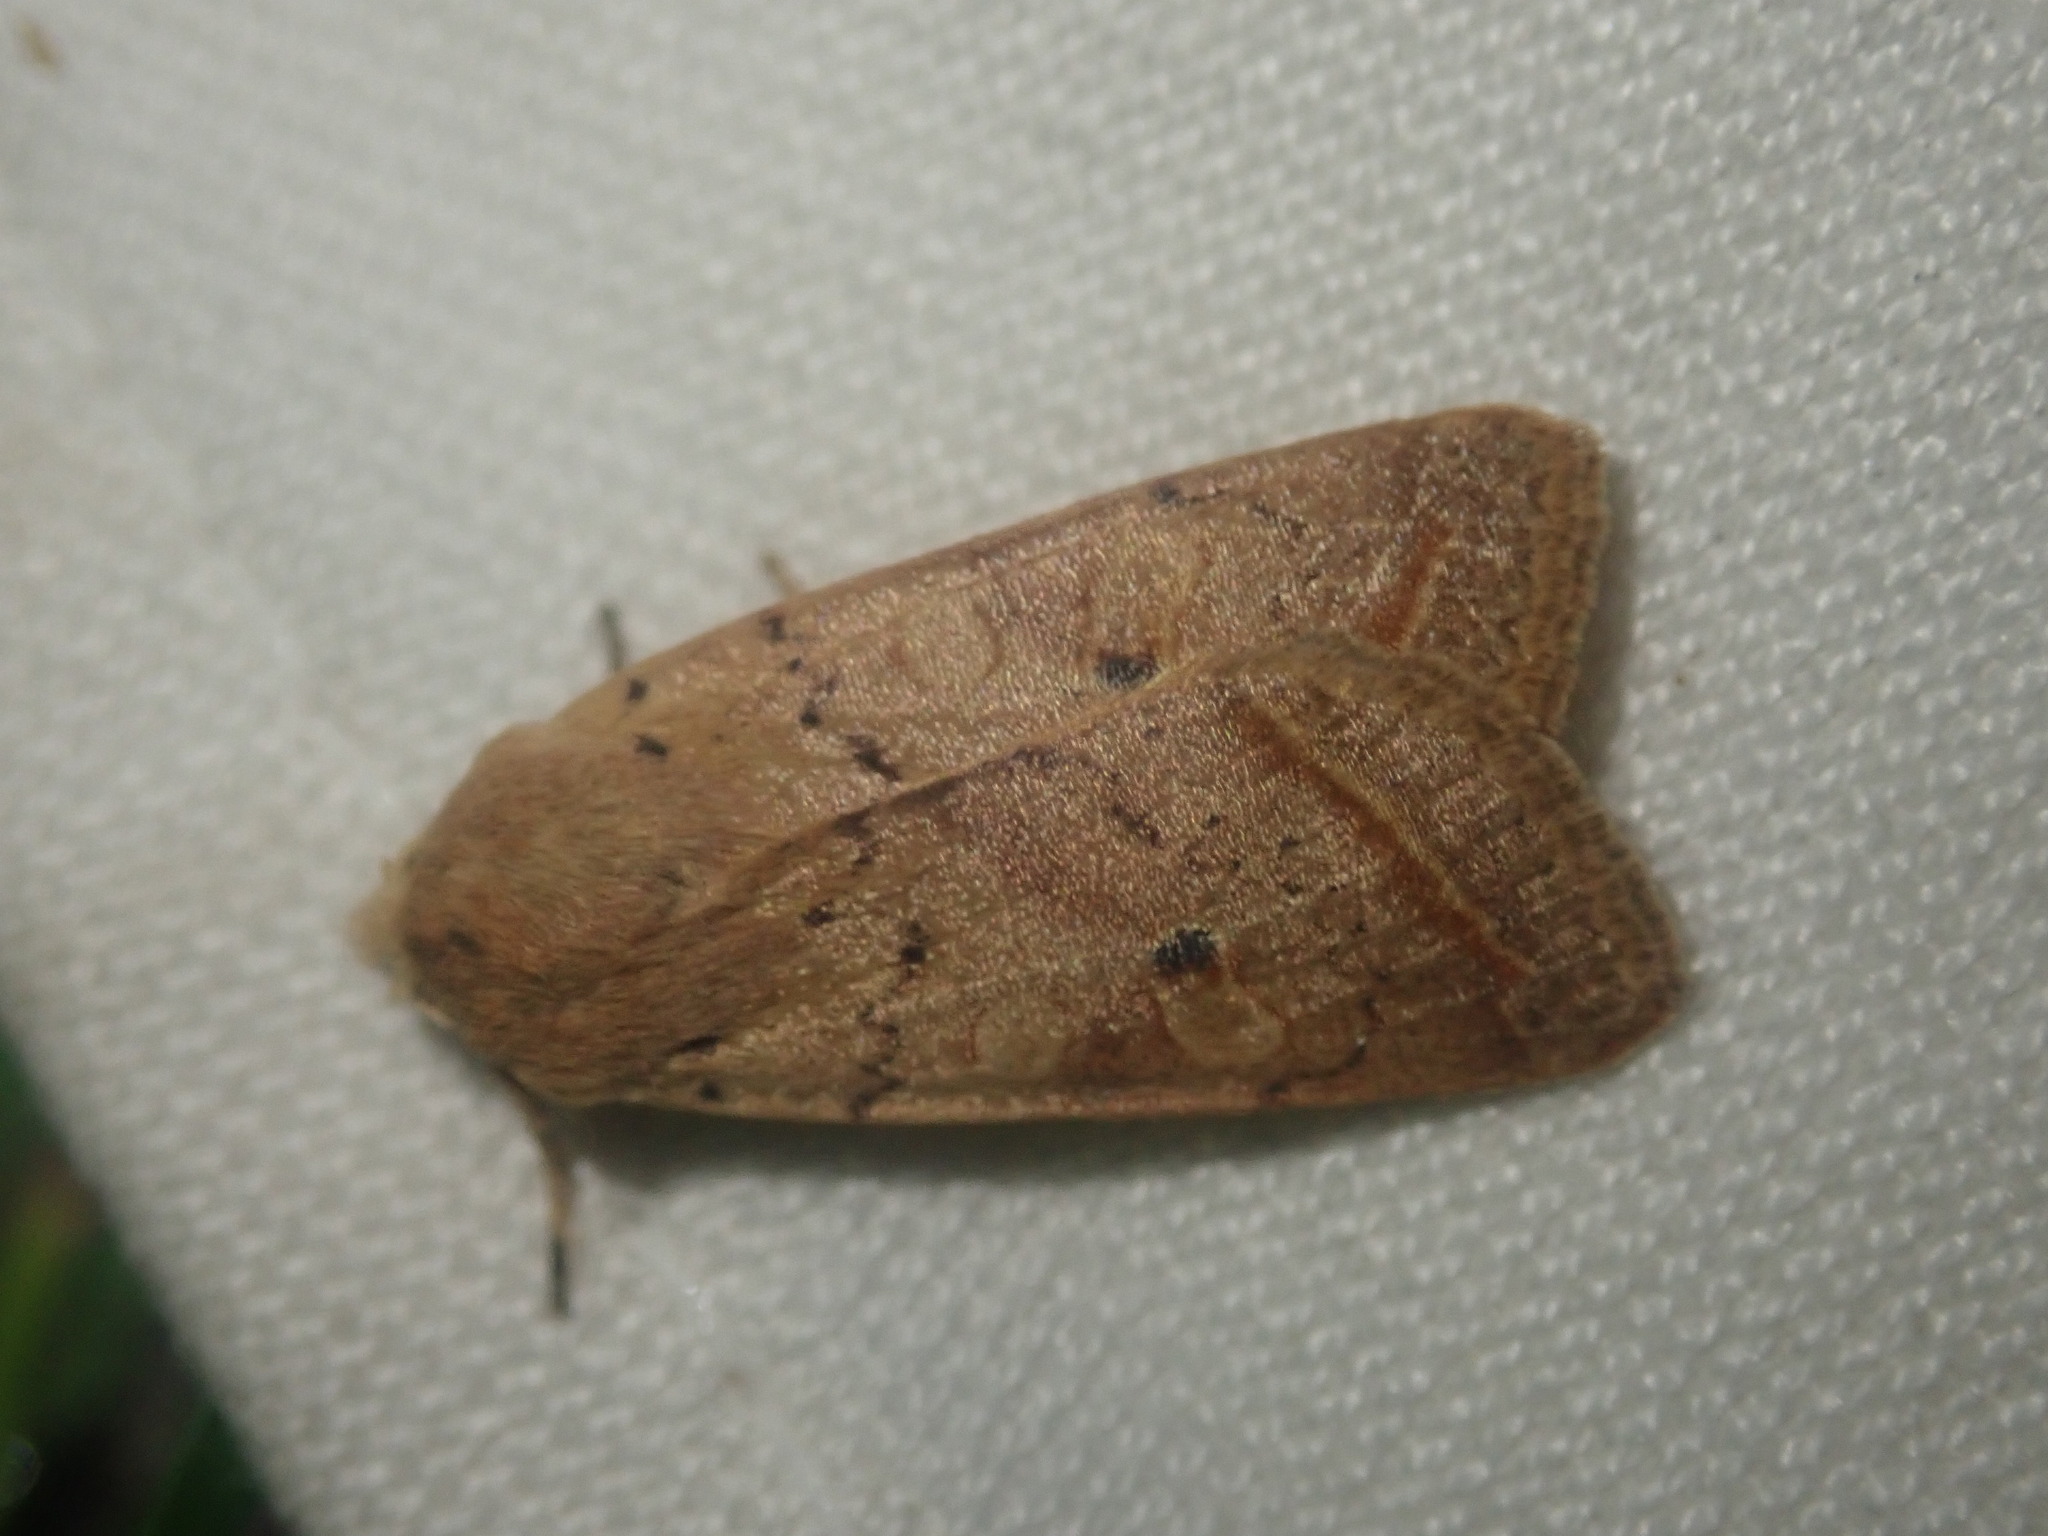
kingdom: Animalia
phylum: Arthropoda
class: Insecta
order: Lepidoptera
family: Noctuidae
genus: Agrochola
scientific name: Agrochola macilenta
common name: Yellow-line quaker
